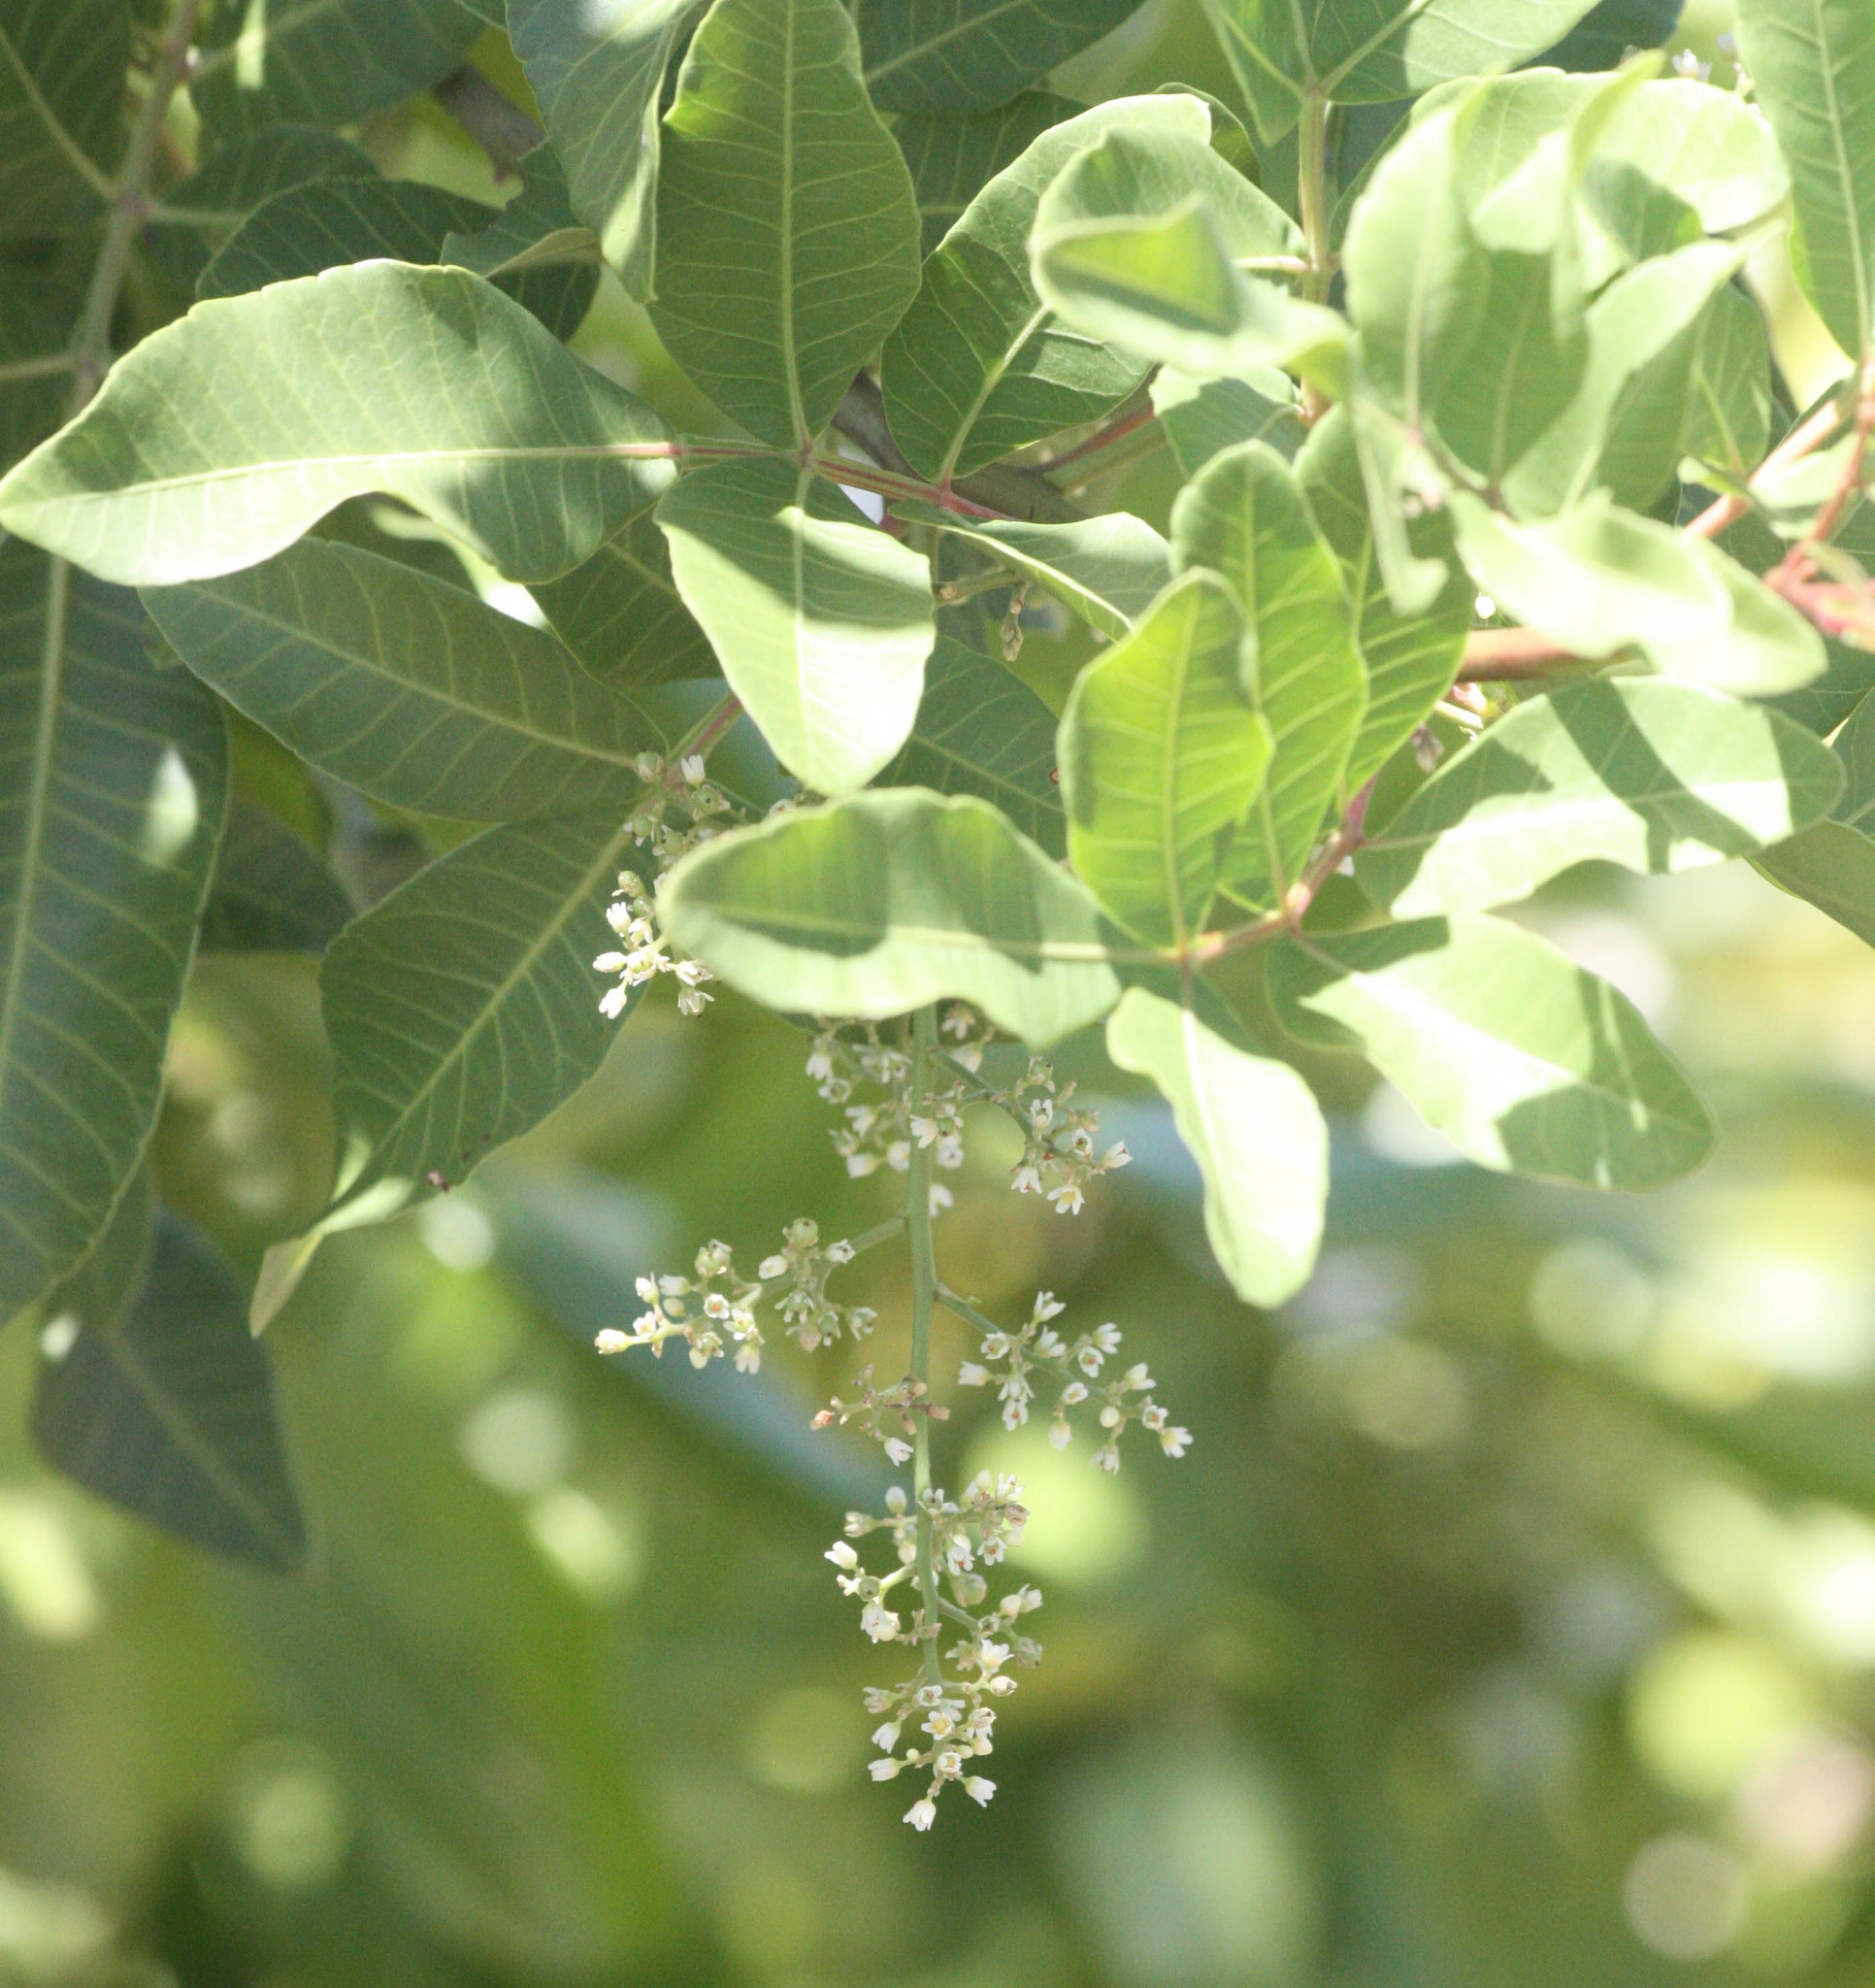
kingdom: Plantae
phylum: Tracheophyta
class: Magnoliopsida
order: Sapindales
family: Anacardiaceae
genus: Schinus
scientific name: Schinus terebinthifolia
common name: Brazilian peppertree
